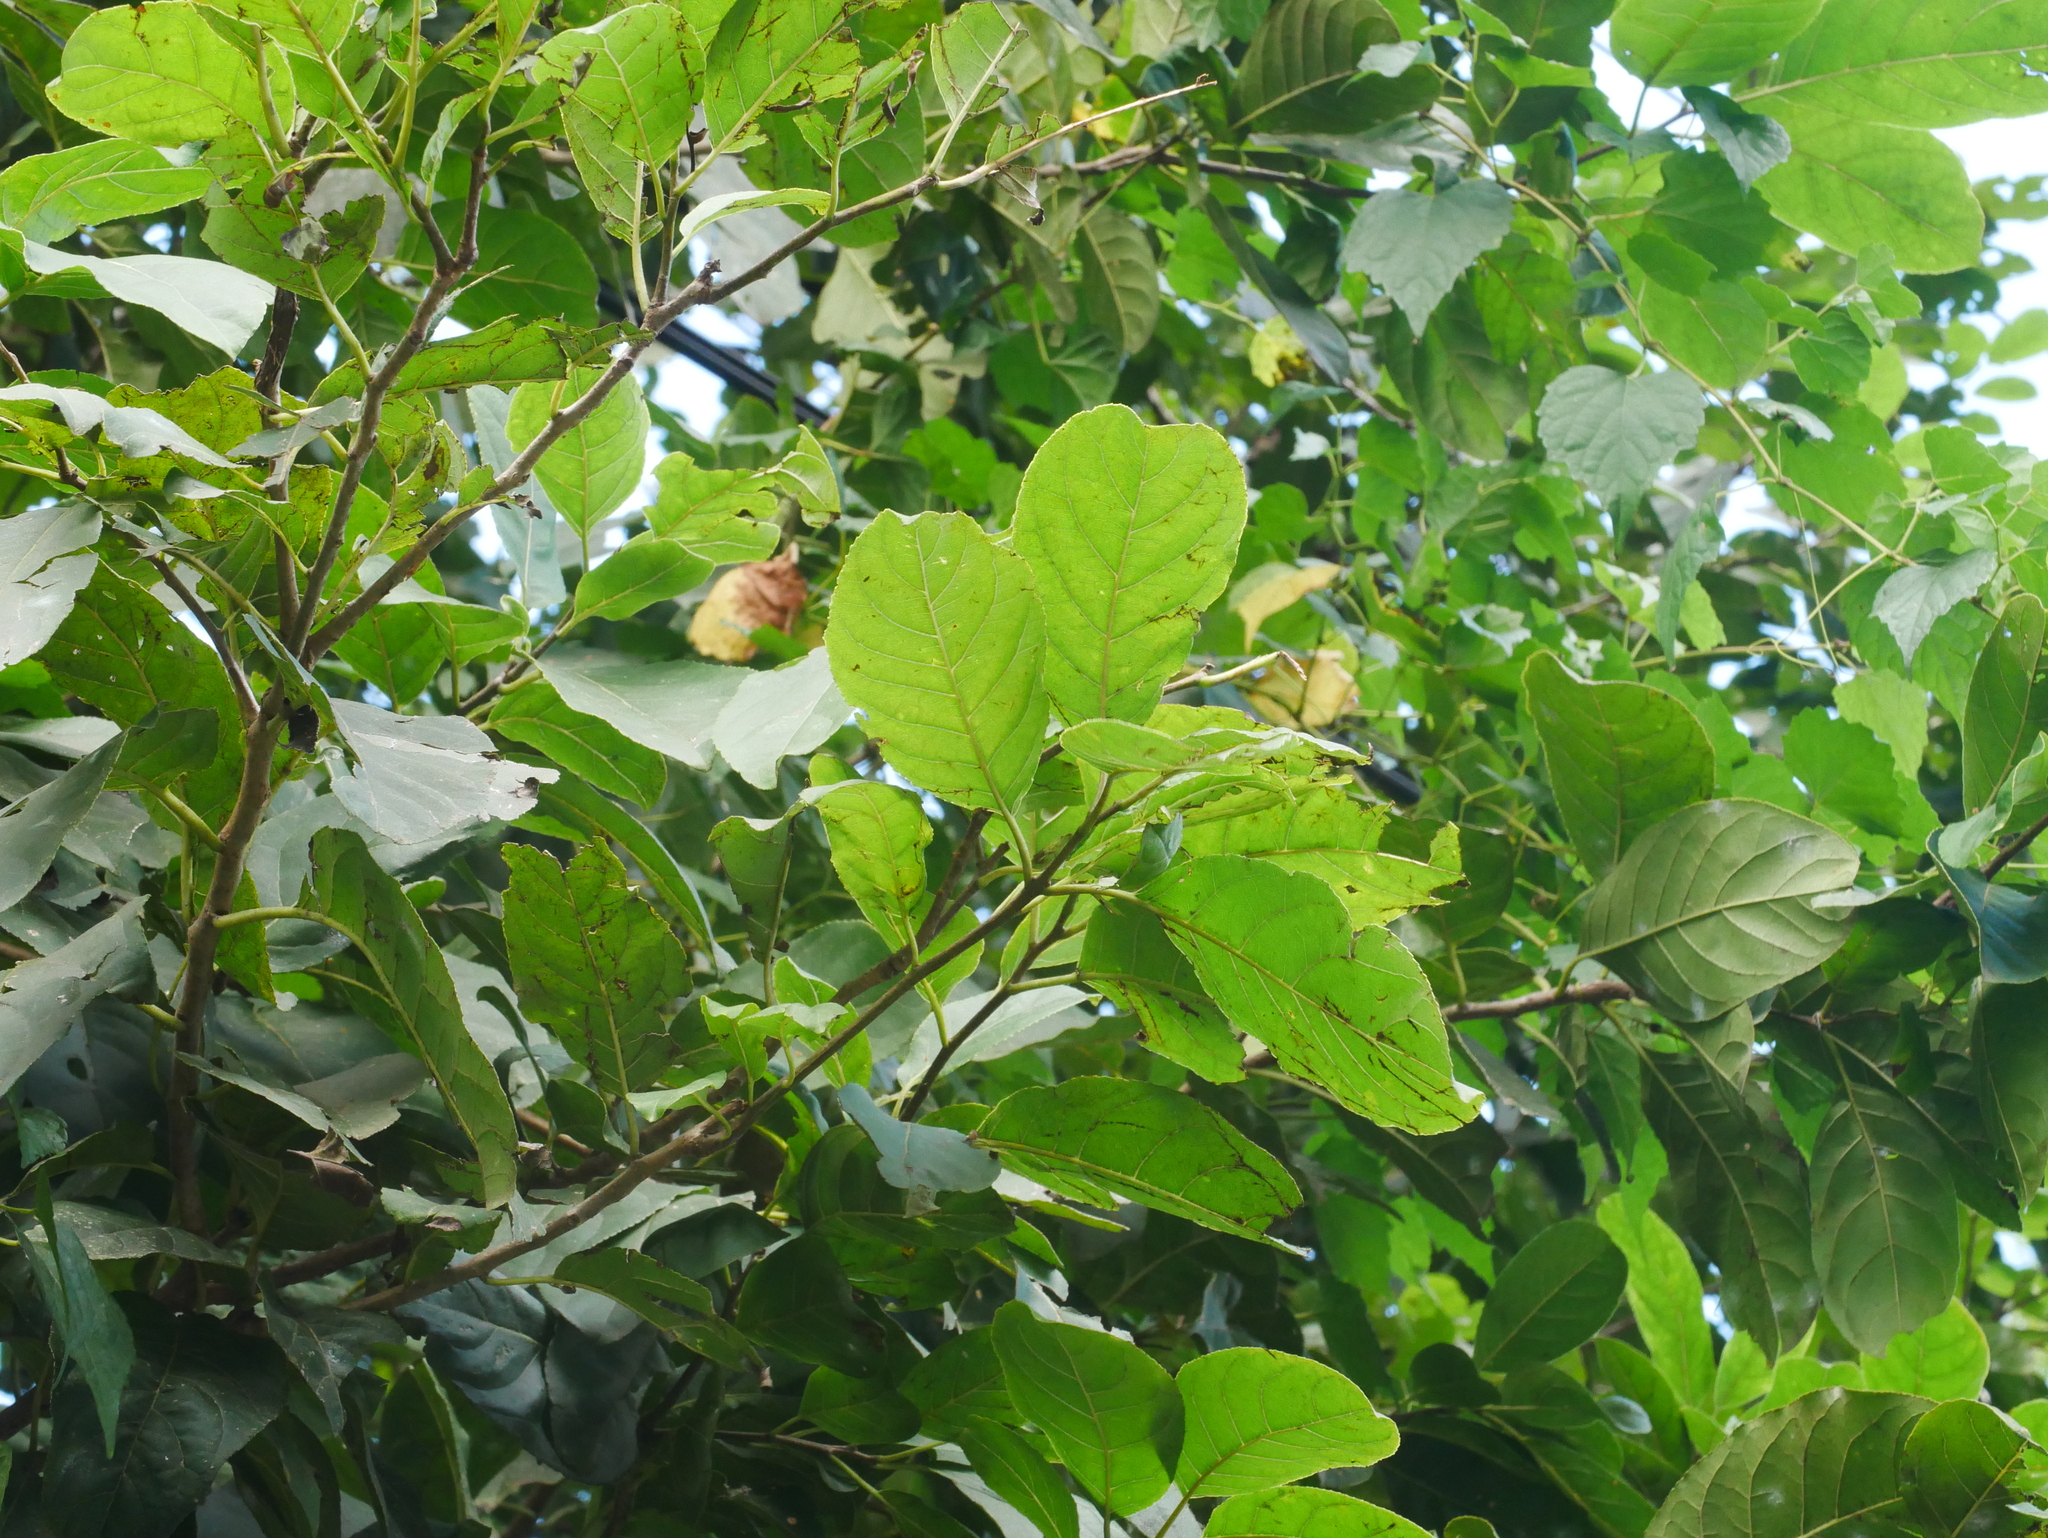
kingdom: Plantae
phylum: Tracheophyta
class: Magnoliopsida
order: Boraginales
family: Ehretiaceae
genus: Ehretia
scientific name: Ehretia acuminata
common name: Kodo wood
